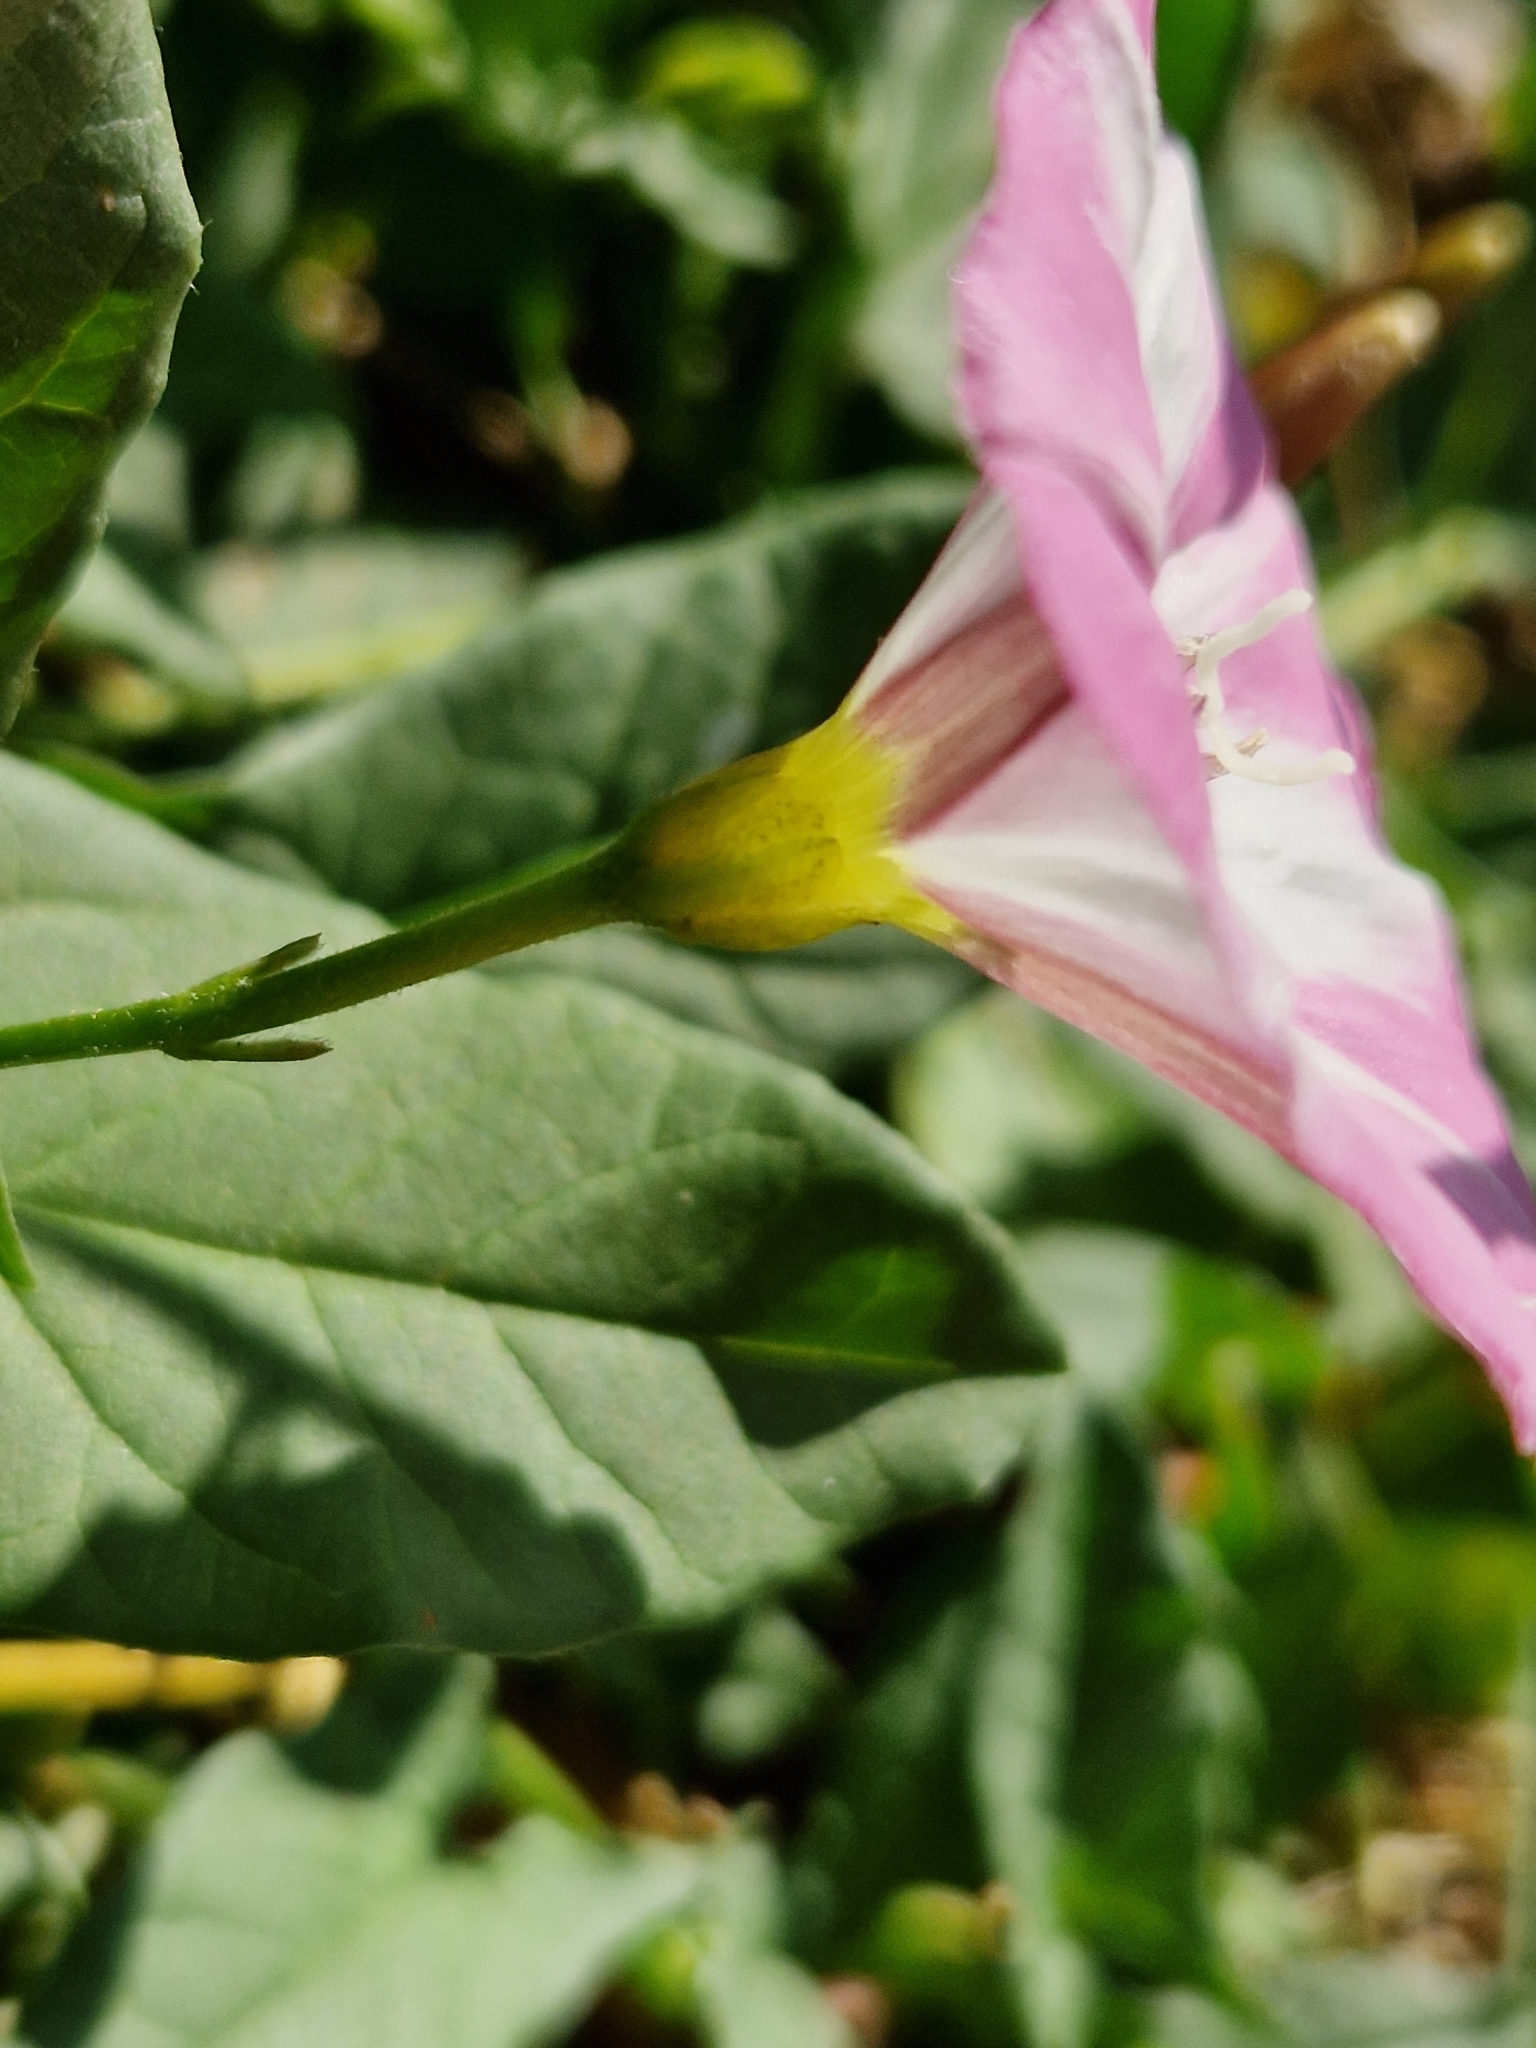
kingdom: Plantae
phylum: Tracheophyta
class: Magnoliopsida
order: Solanales
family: Convolvulaceae
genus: Convolvulus
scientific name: Convolvulus arvensis
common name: Field bindweed
